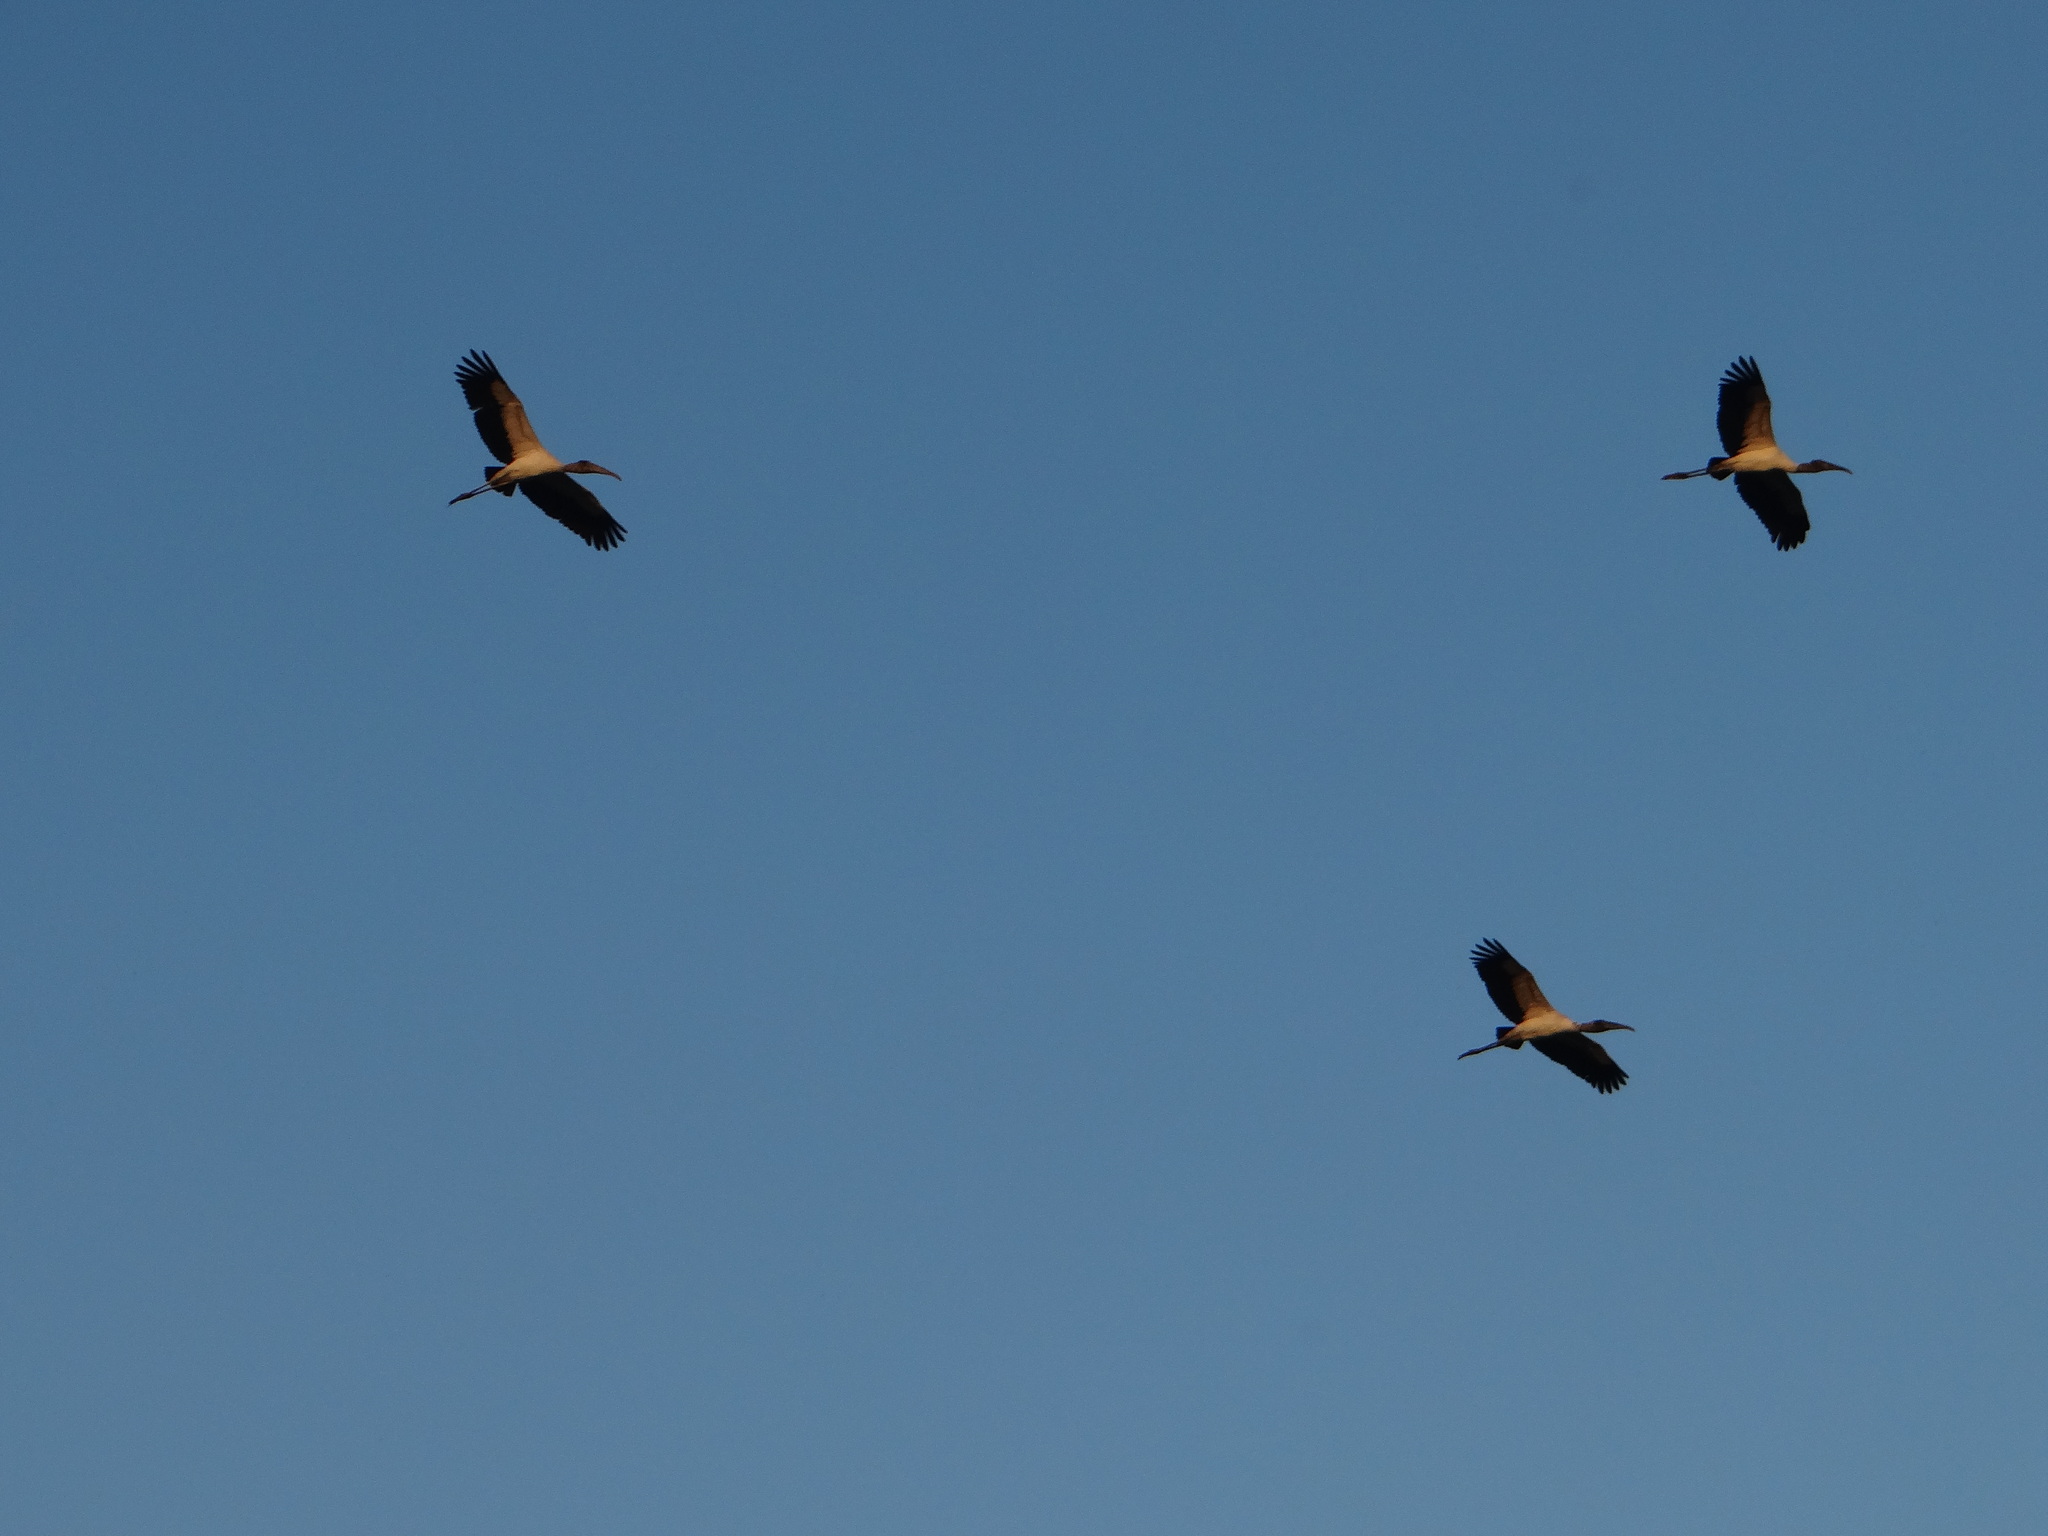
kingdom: Animalia
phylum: Chordata
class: Aves
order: Ciconiiformes
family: Ciconiidae
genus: Mycteria
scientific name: Mycteria americana
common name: Wood stork
